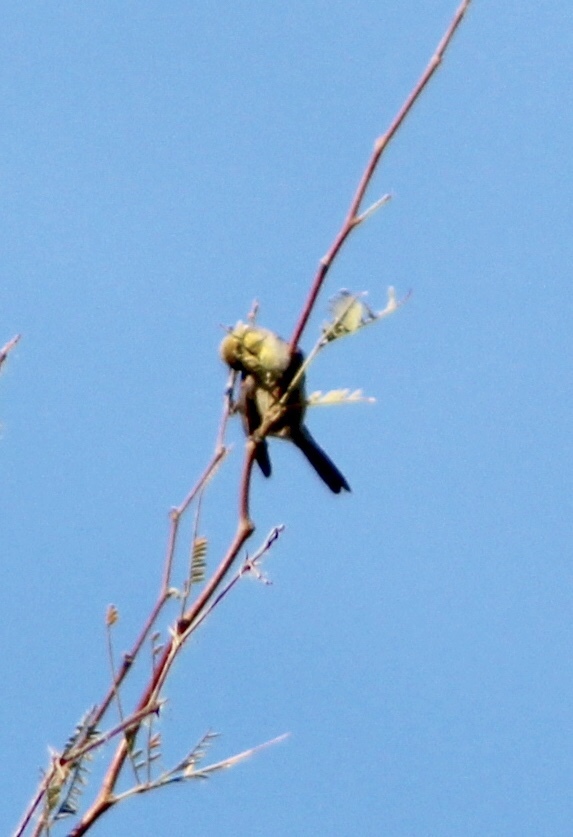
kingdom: Animalia
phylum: Chordata
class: Aves
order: Passeriformes
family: Remizidae
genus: Auriparus
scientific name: Auriparus flaviceps
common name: Verdin
